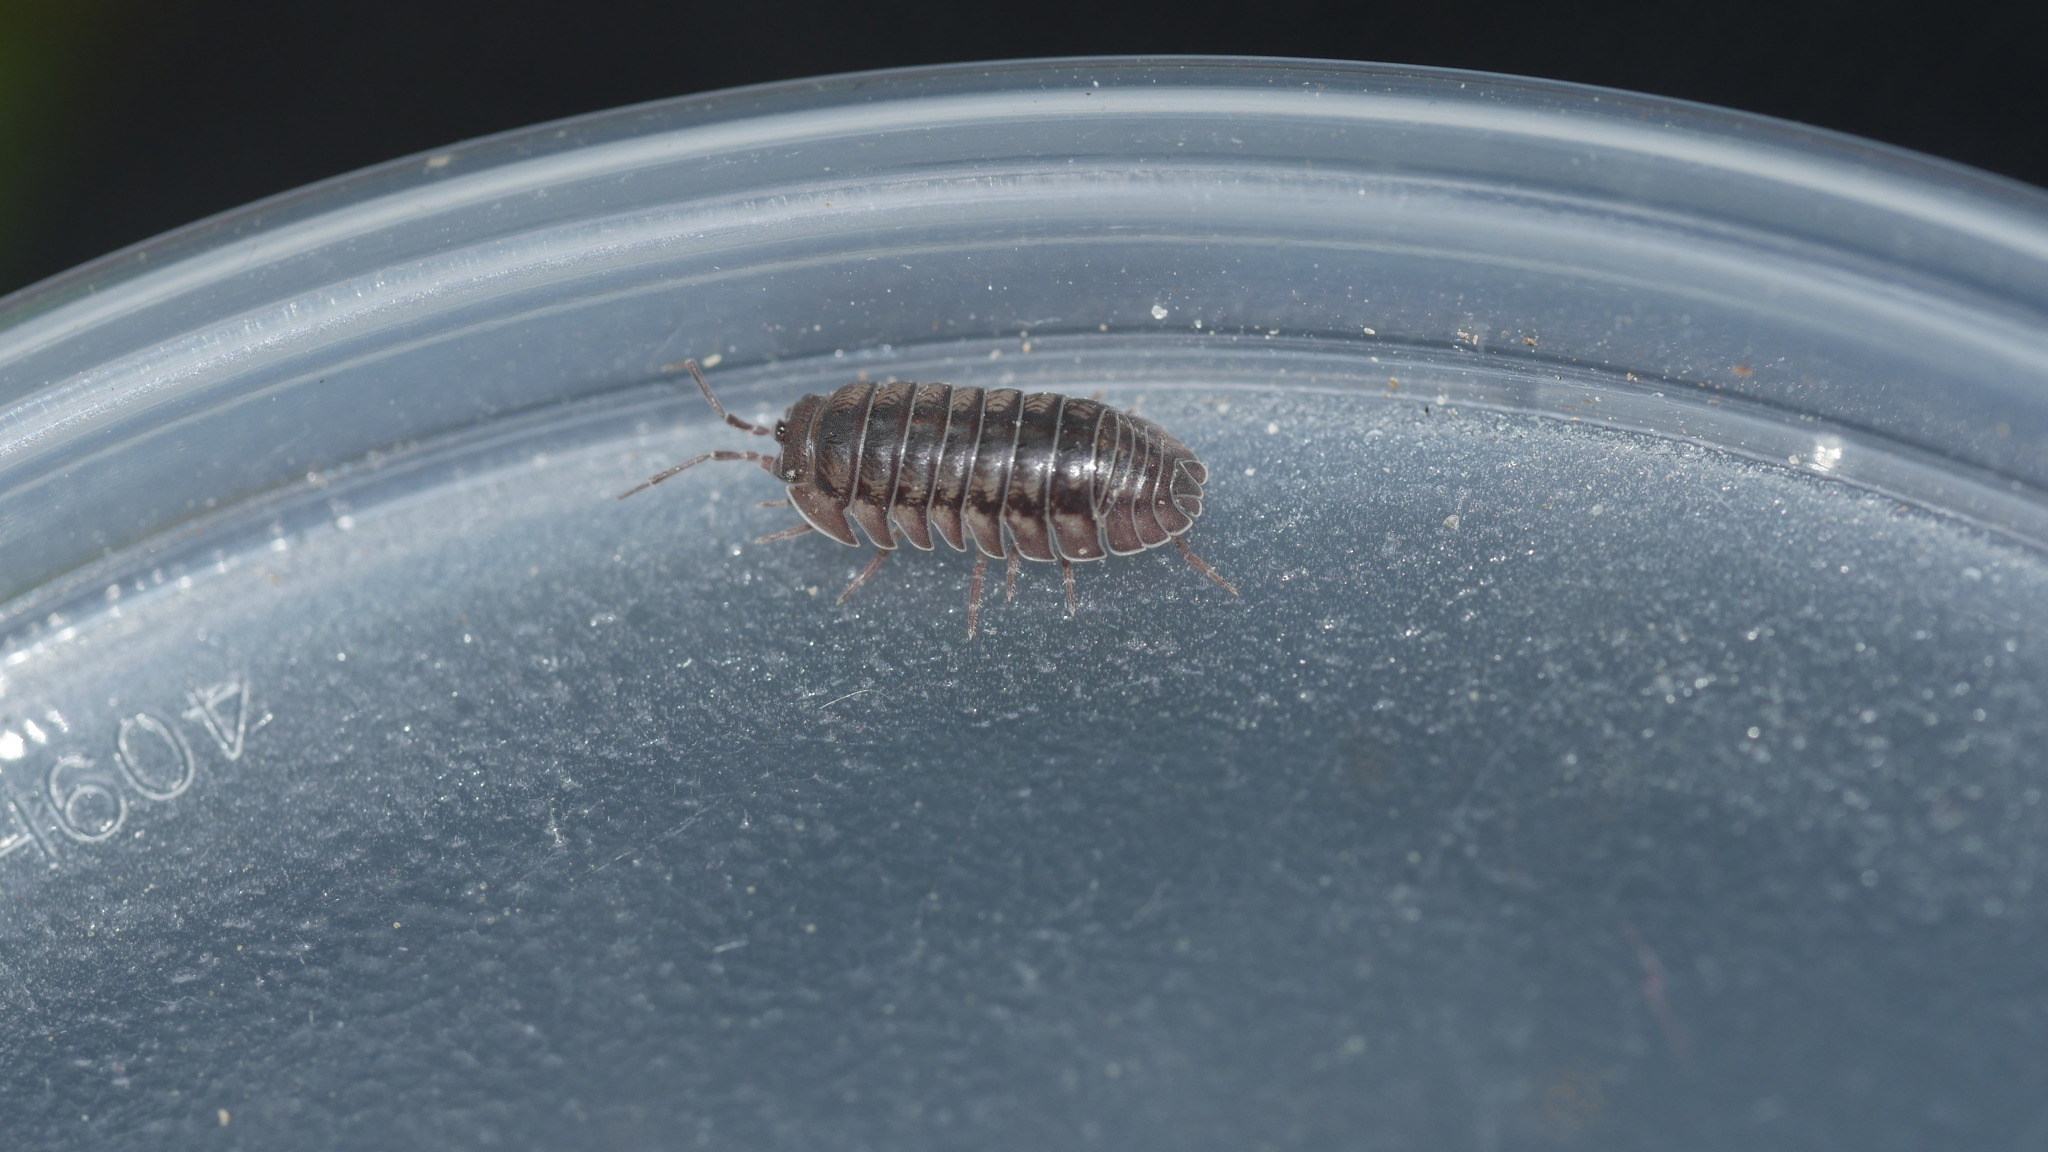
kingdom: Animalia
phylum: Arthropoda
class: Malacostraca
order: Isopoda
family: Armadillidiidae
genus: Armadillidium
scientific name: Armadillidium nasatum
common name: Isopod
